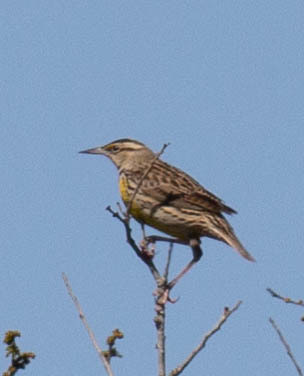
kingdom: Animalia
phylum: Chordata
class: Aves
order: Passeriformes
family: Icteridae
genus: Sturnella
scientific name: Sturnella magna
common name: Eastern meadowlark
